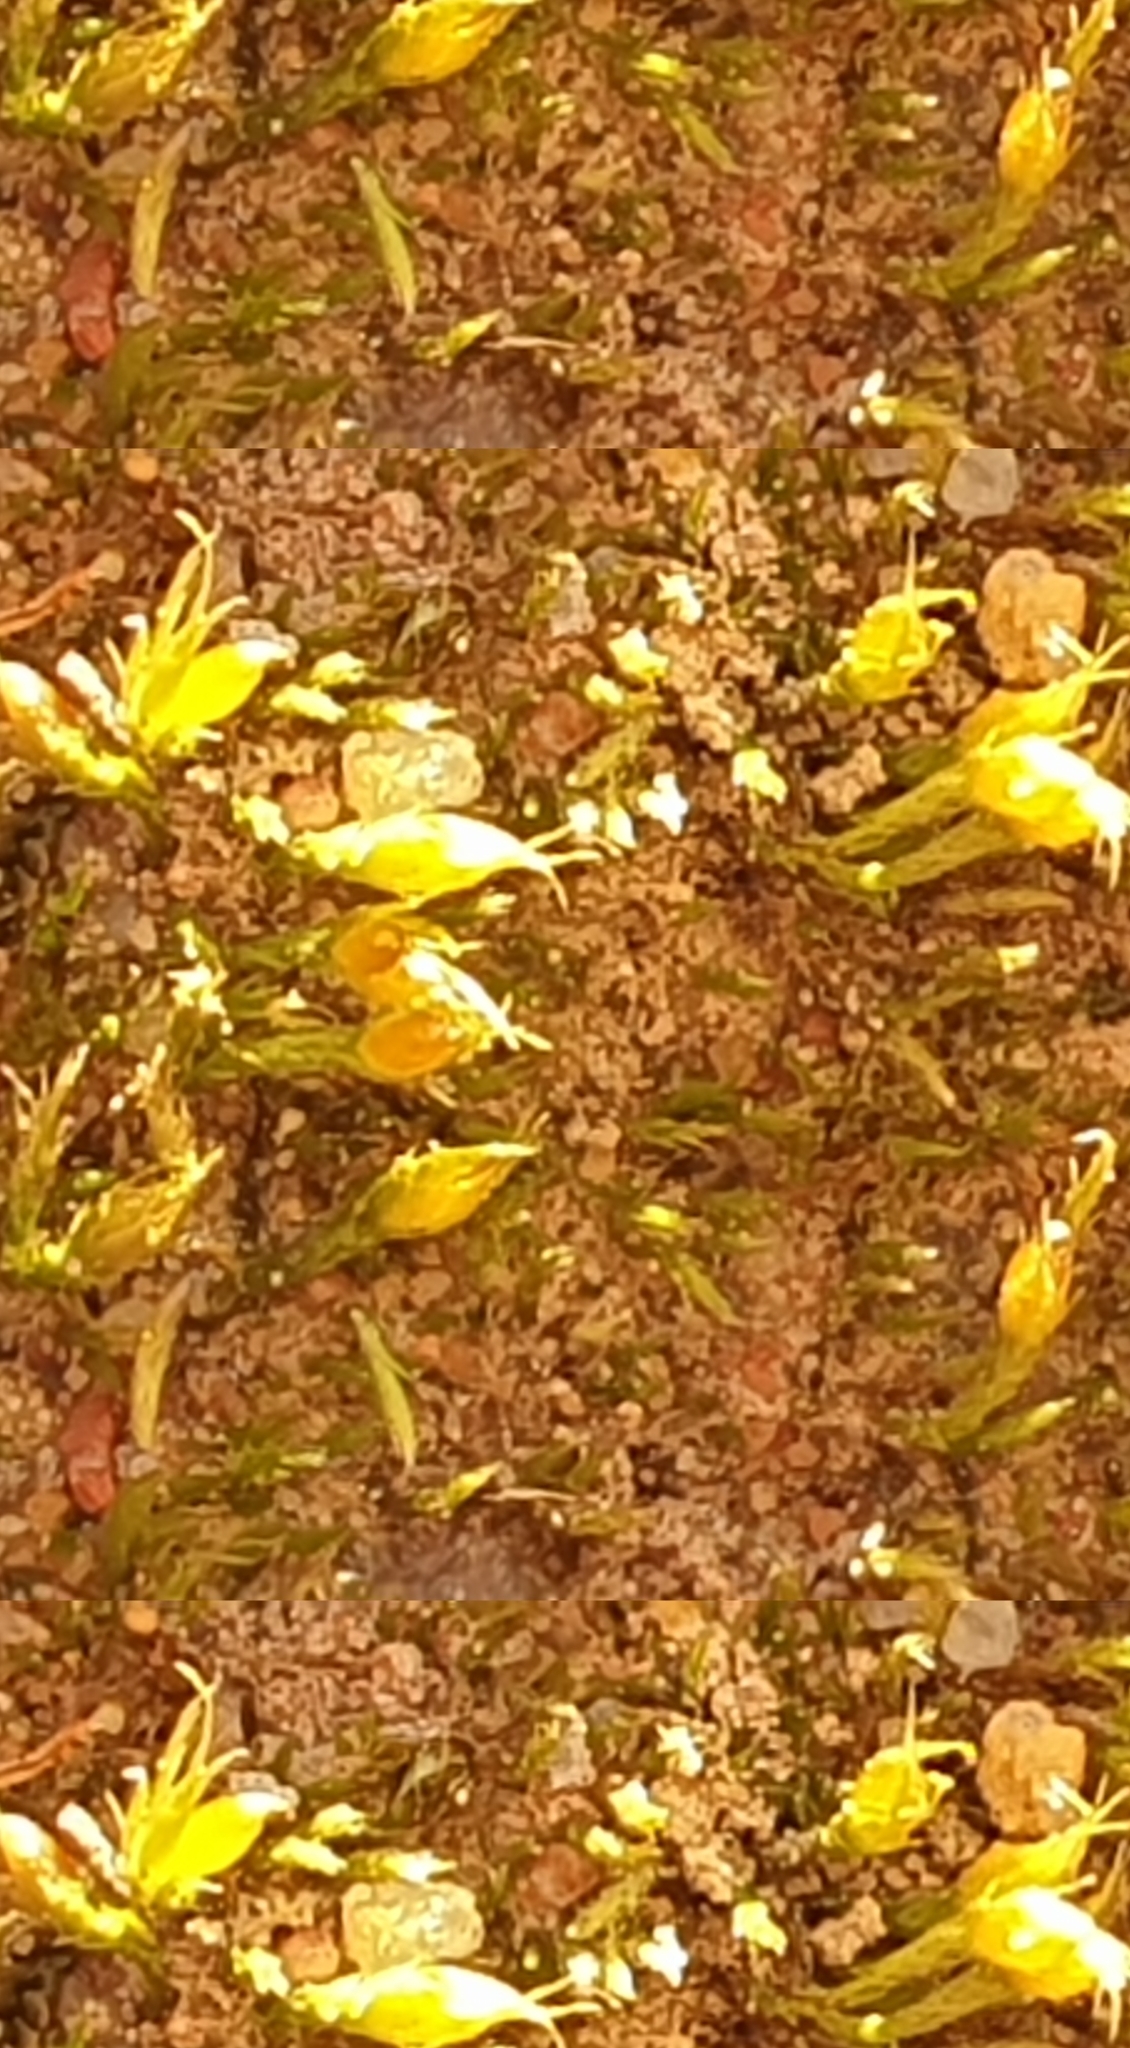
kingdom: Plantae
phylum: Bryophyta
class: Bryopsida
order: Dicranales
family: Ditrichaceae
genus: Pleuridium
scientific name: Pleuridium nervosum
